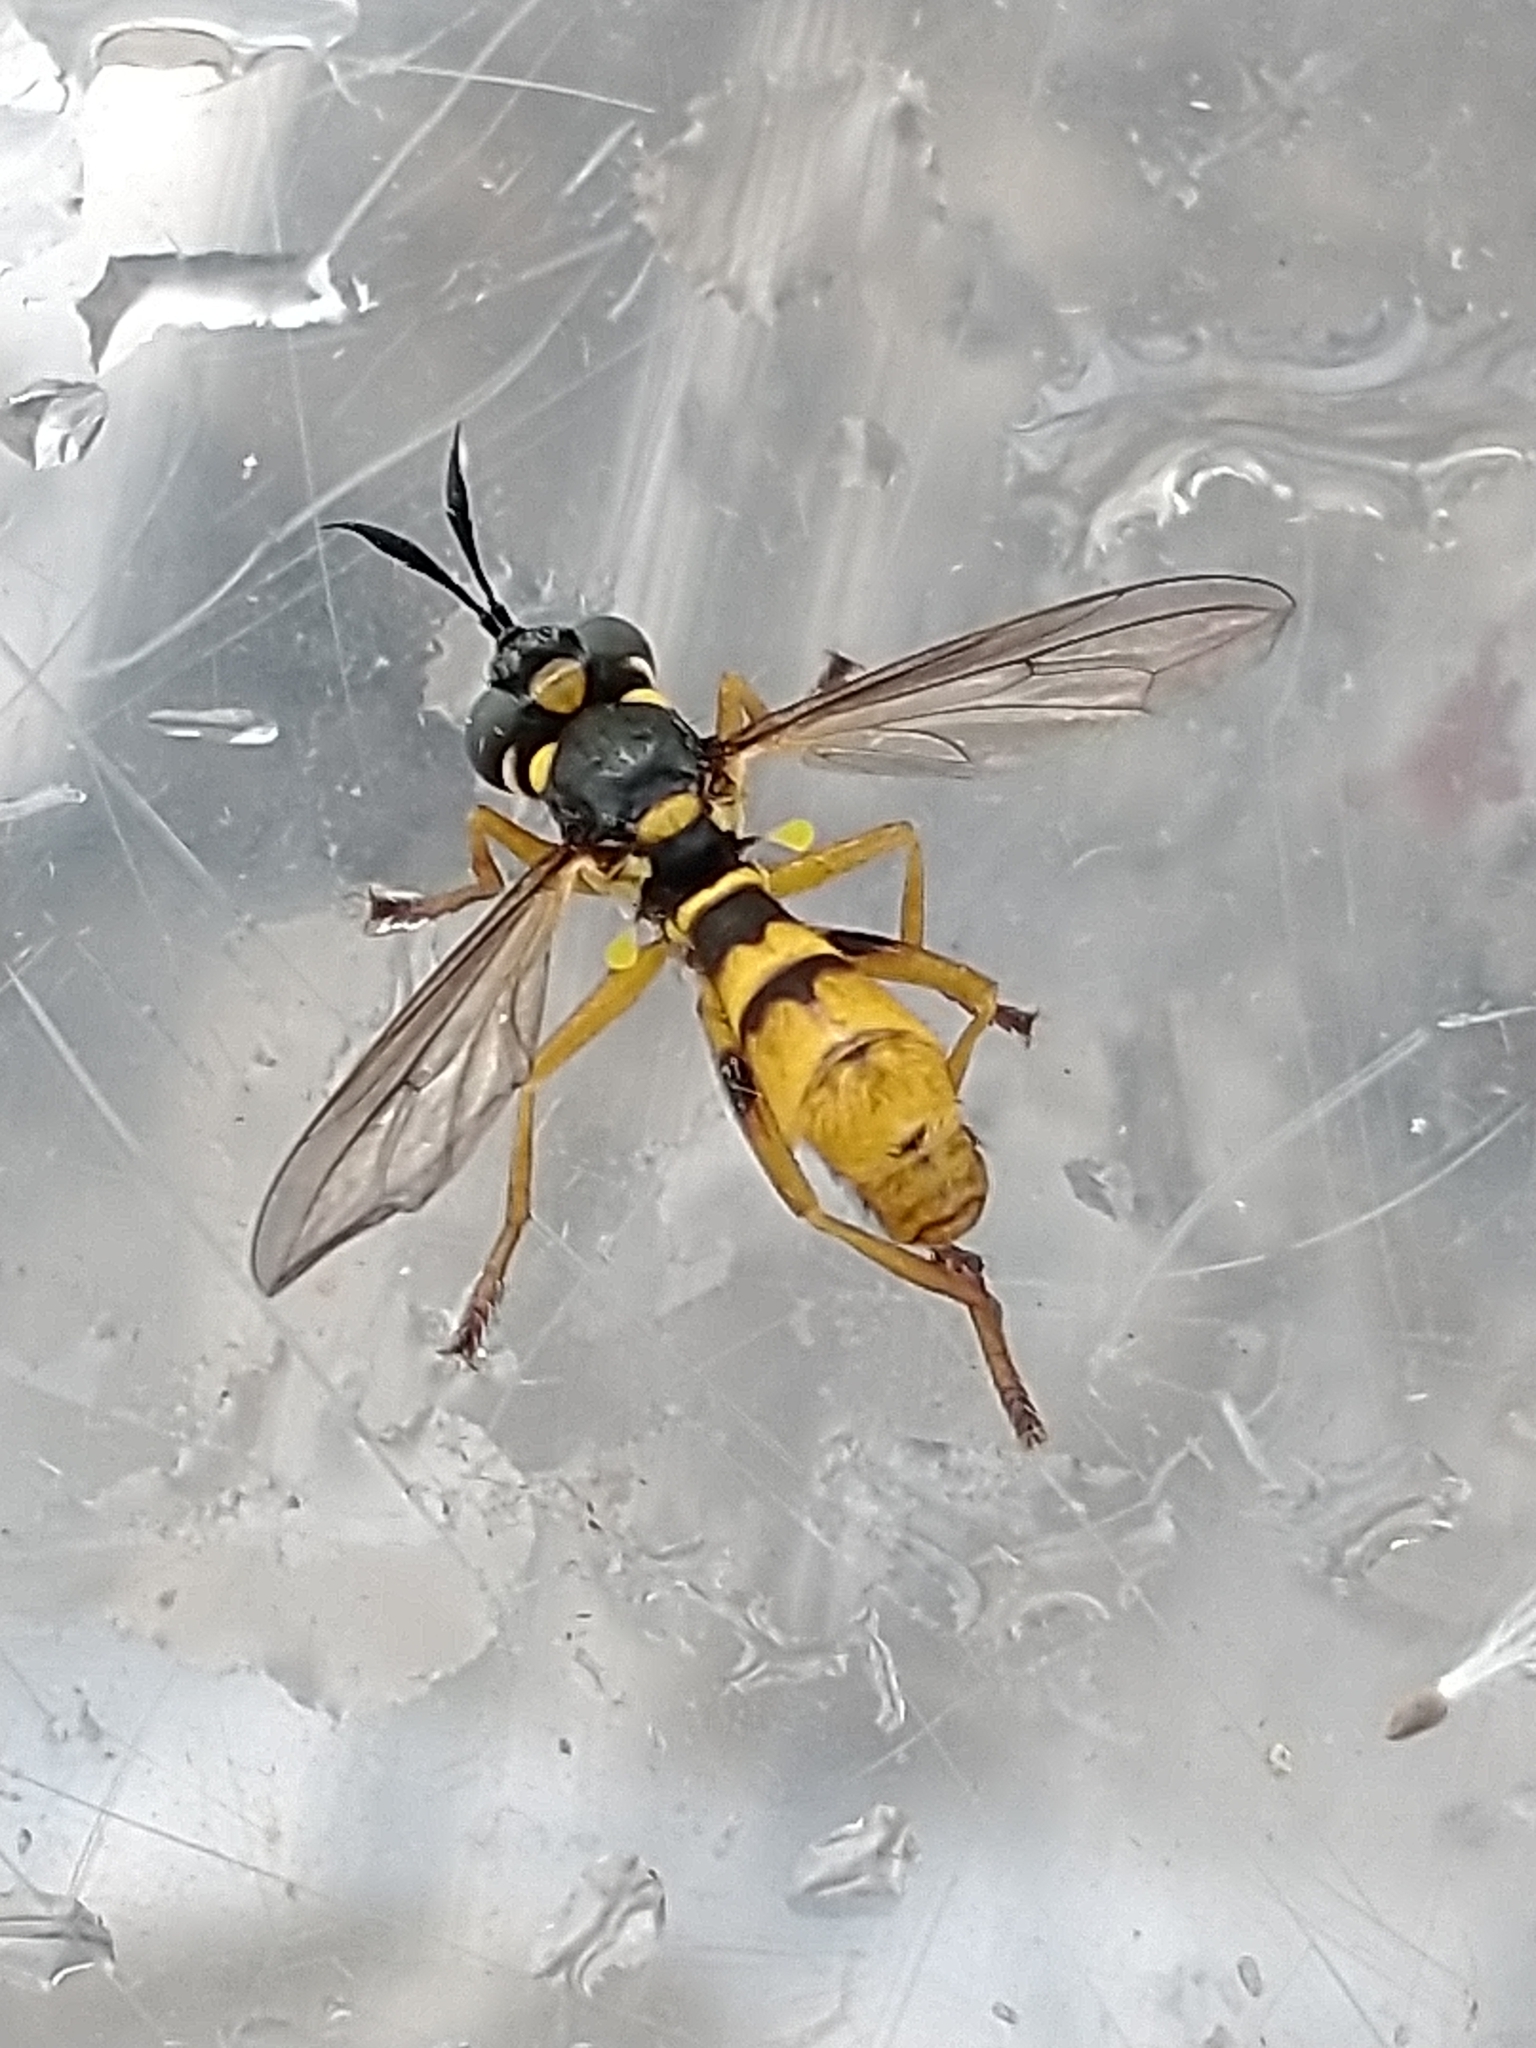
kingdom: Animalia
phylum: Arthropoda
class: Insecta
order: Diptera
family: Conopidae
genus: Leopoldius
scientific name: Leopoldius signatus
